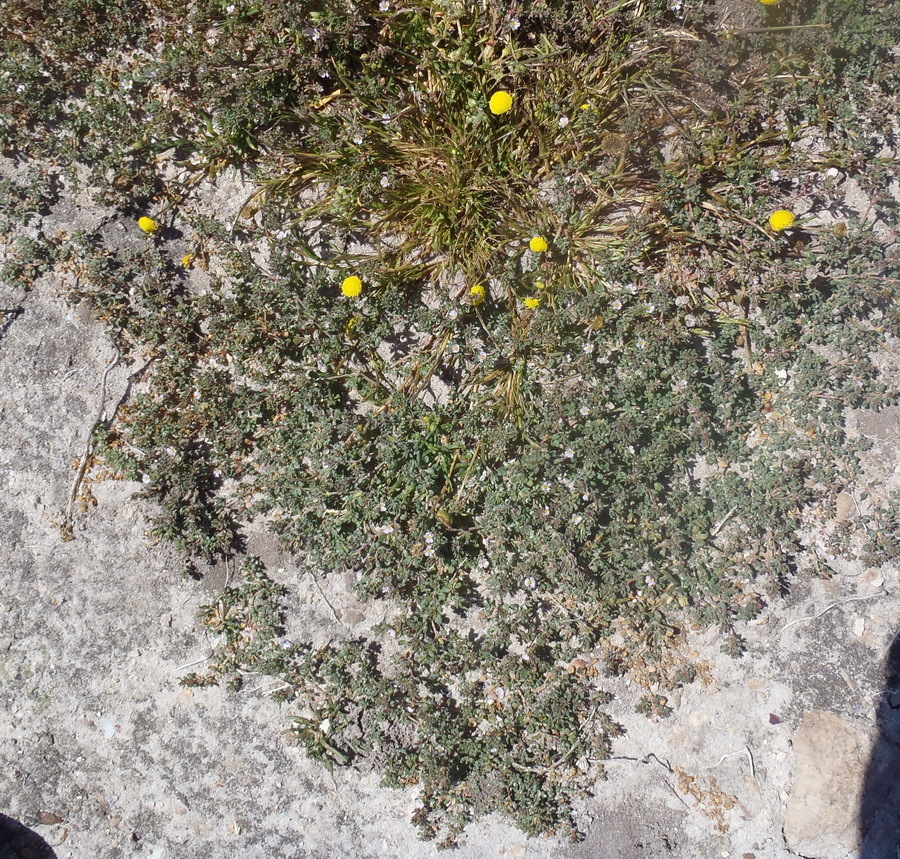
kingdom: Plantae
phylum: Tracheophyta
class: Magnoliopsida
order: Caryophyllales
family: Frankeniaceae
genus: Frankenia
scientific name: Frankenia pulverulenta
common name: European seaheath
